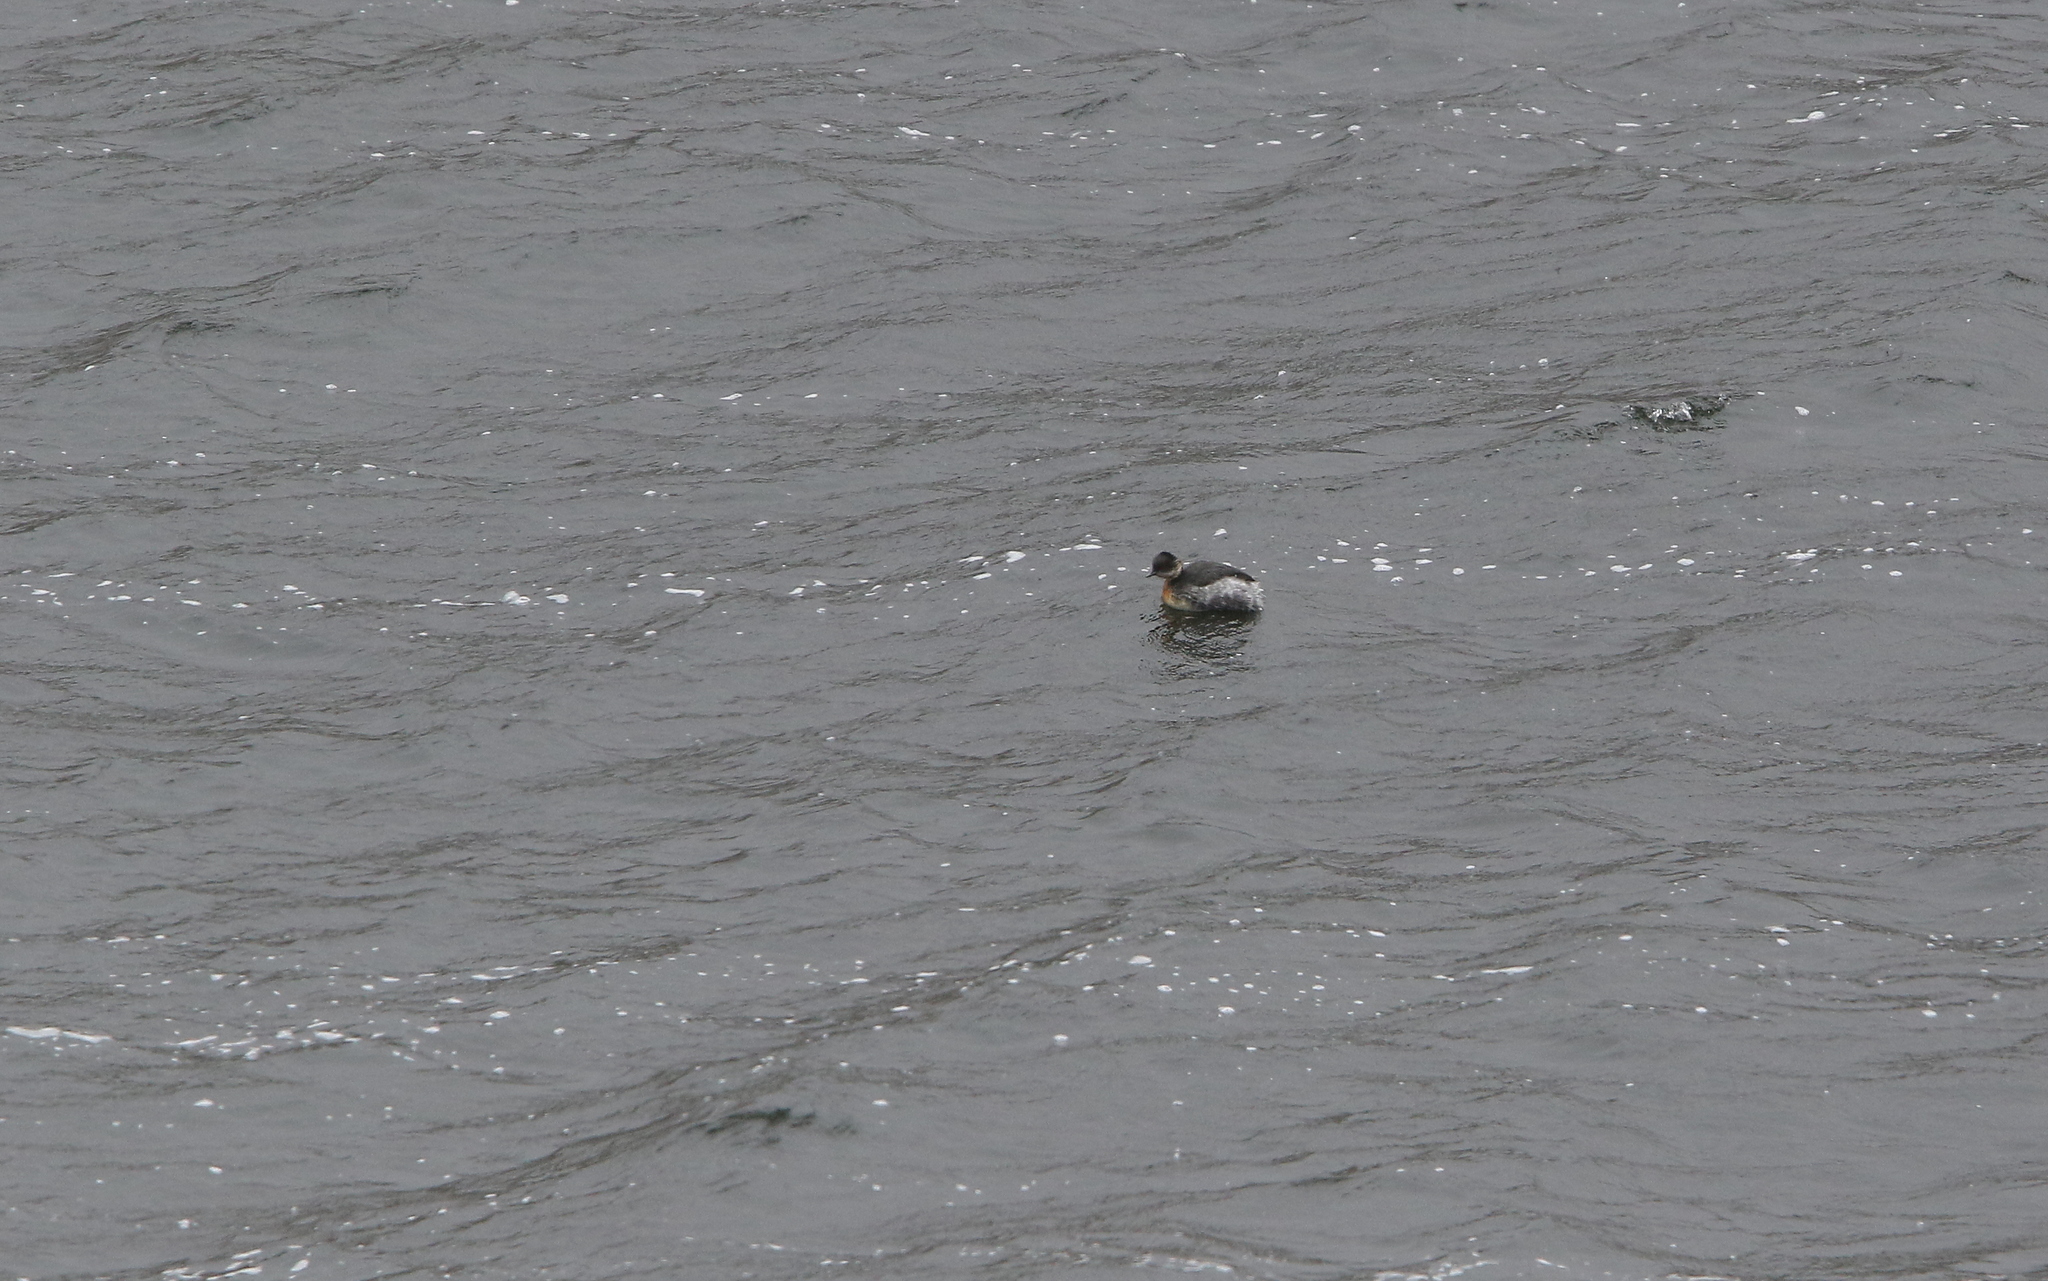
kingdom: Animalia
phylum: Chordata
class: Aves
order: Podicipediformes
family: Podicipedidae
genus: Podiceps
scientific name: Podiceps occipitalis
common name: Silvery grebe
